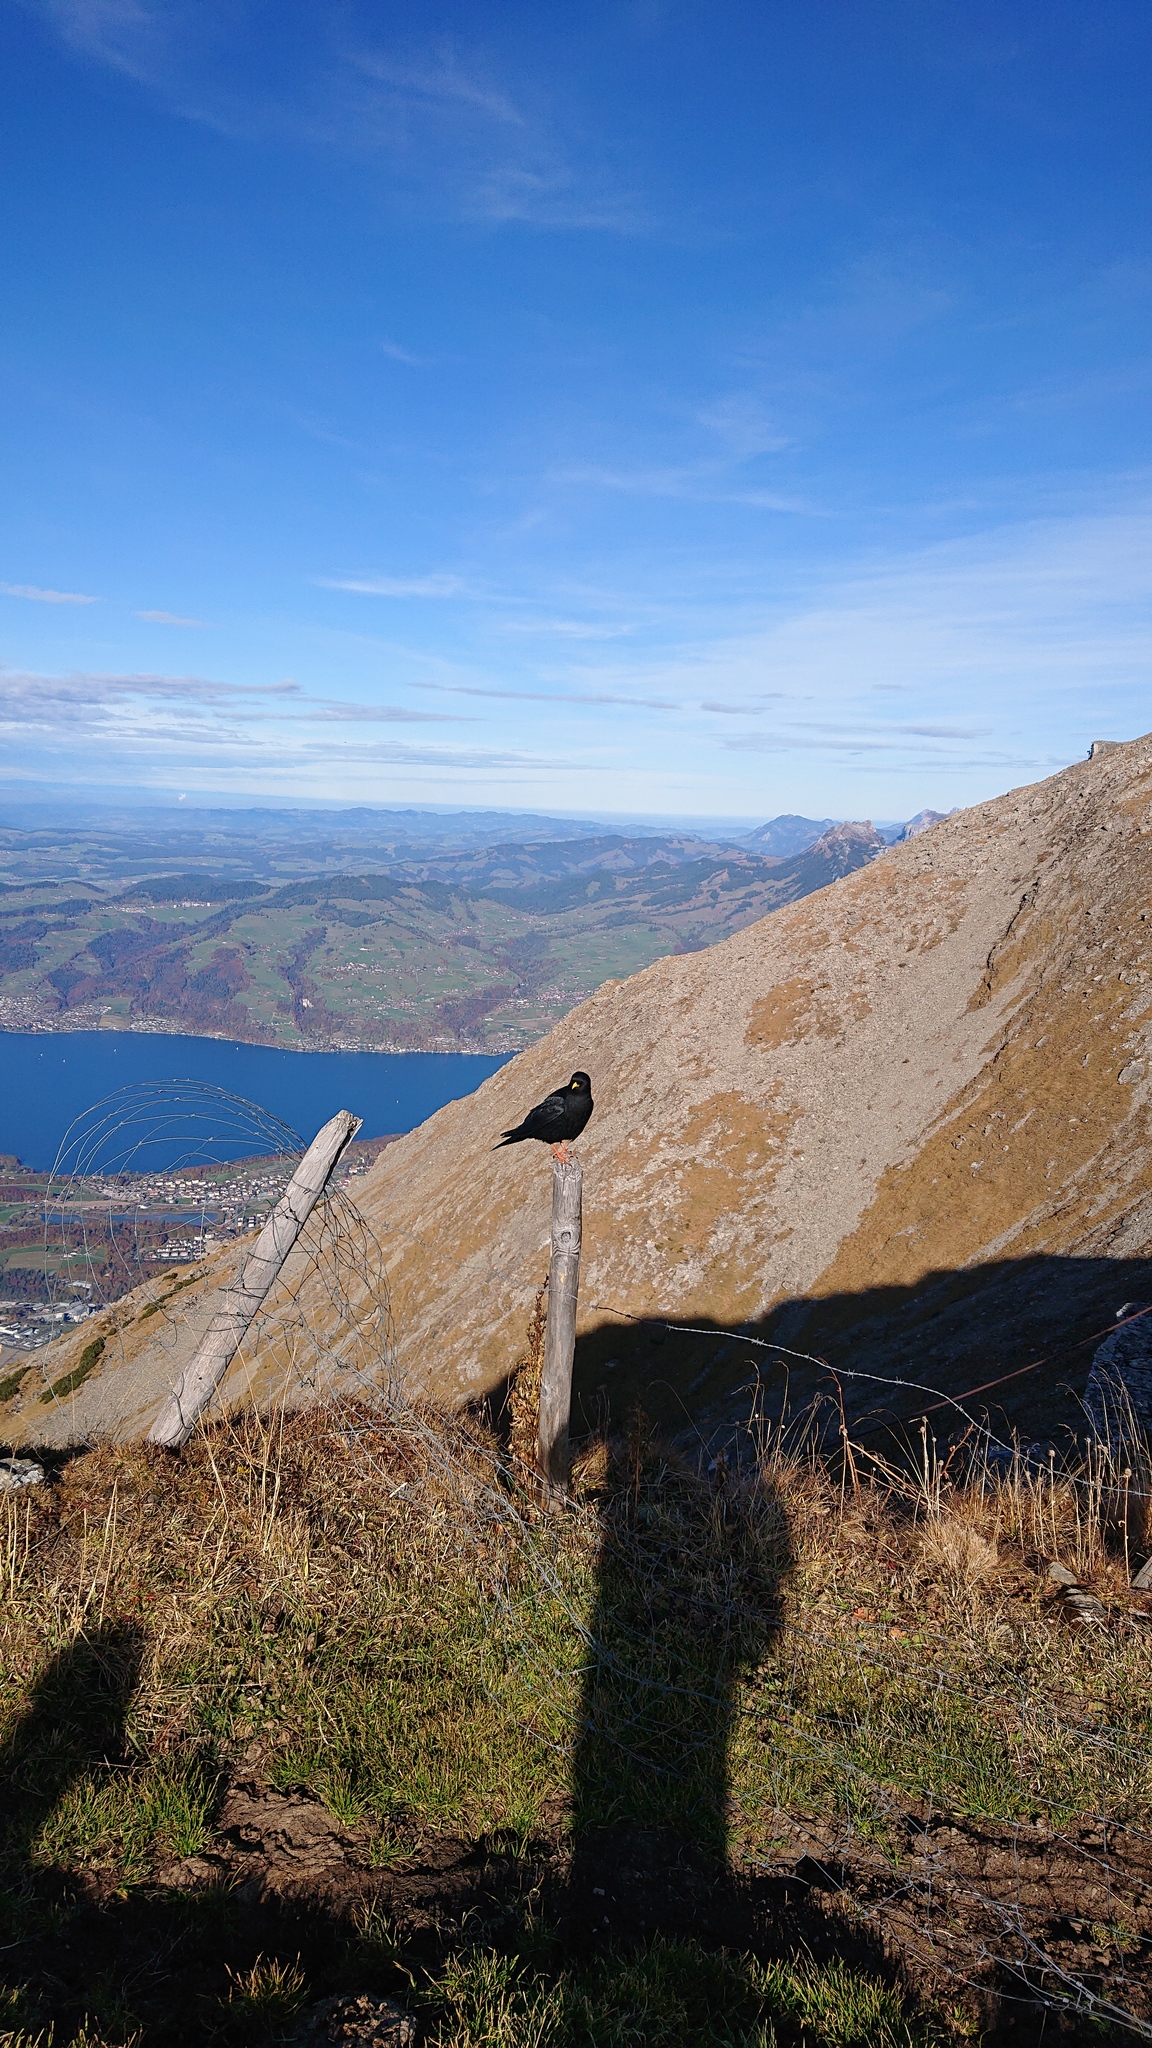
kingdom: Animalia
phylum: Chordata
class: Aves
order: Passeriformes
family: Corvidae
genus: Pyrrhocorax
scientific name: Pyrrhocorax graculus
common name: Alpine chough
